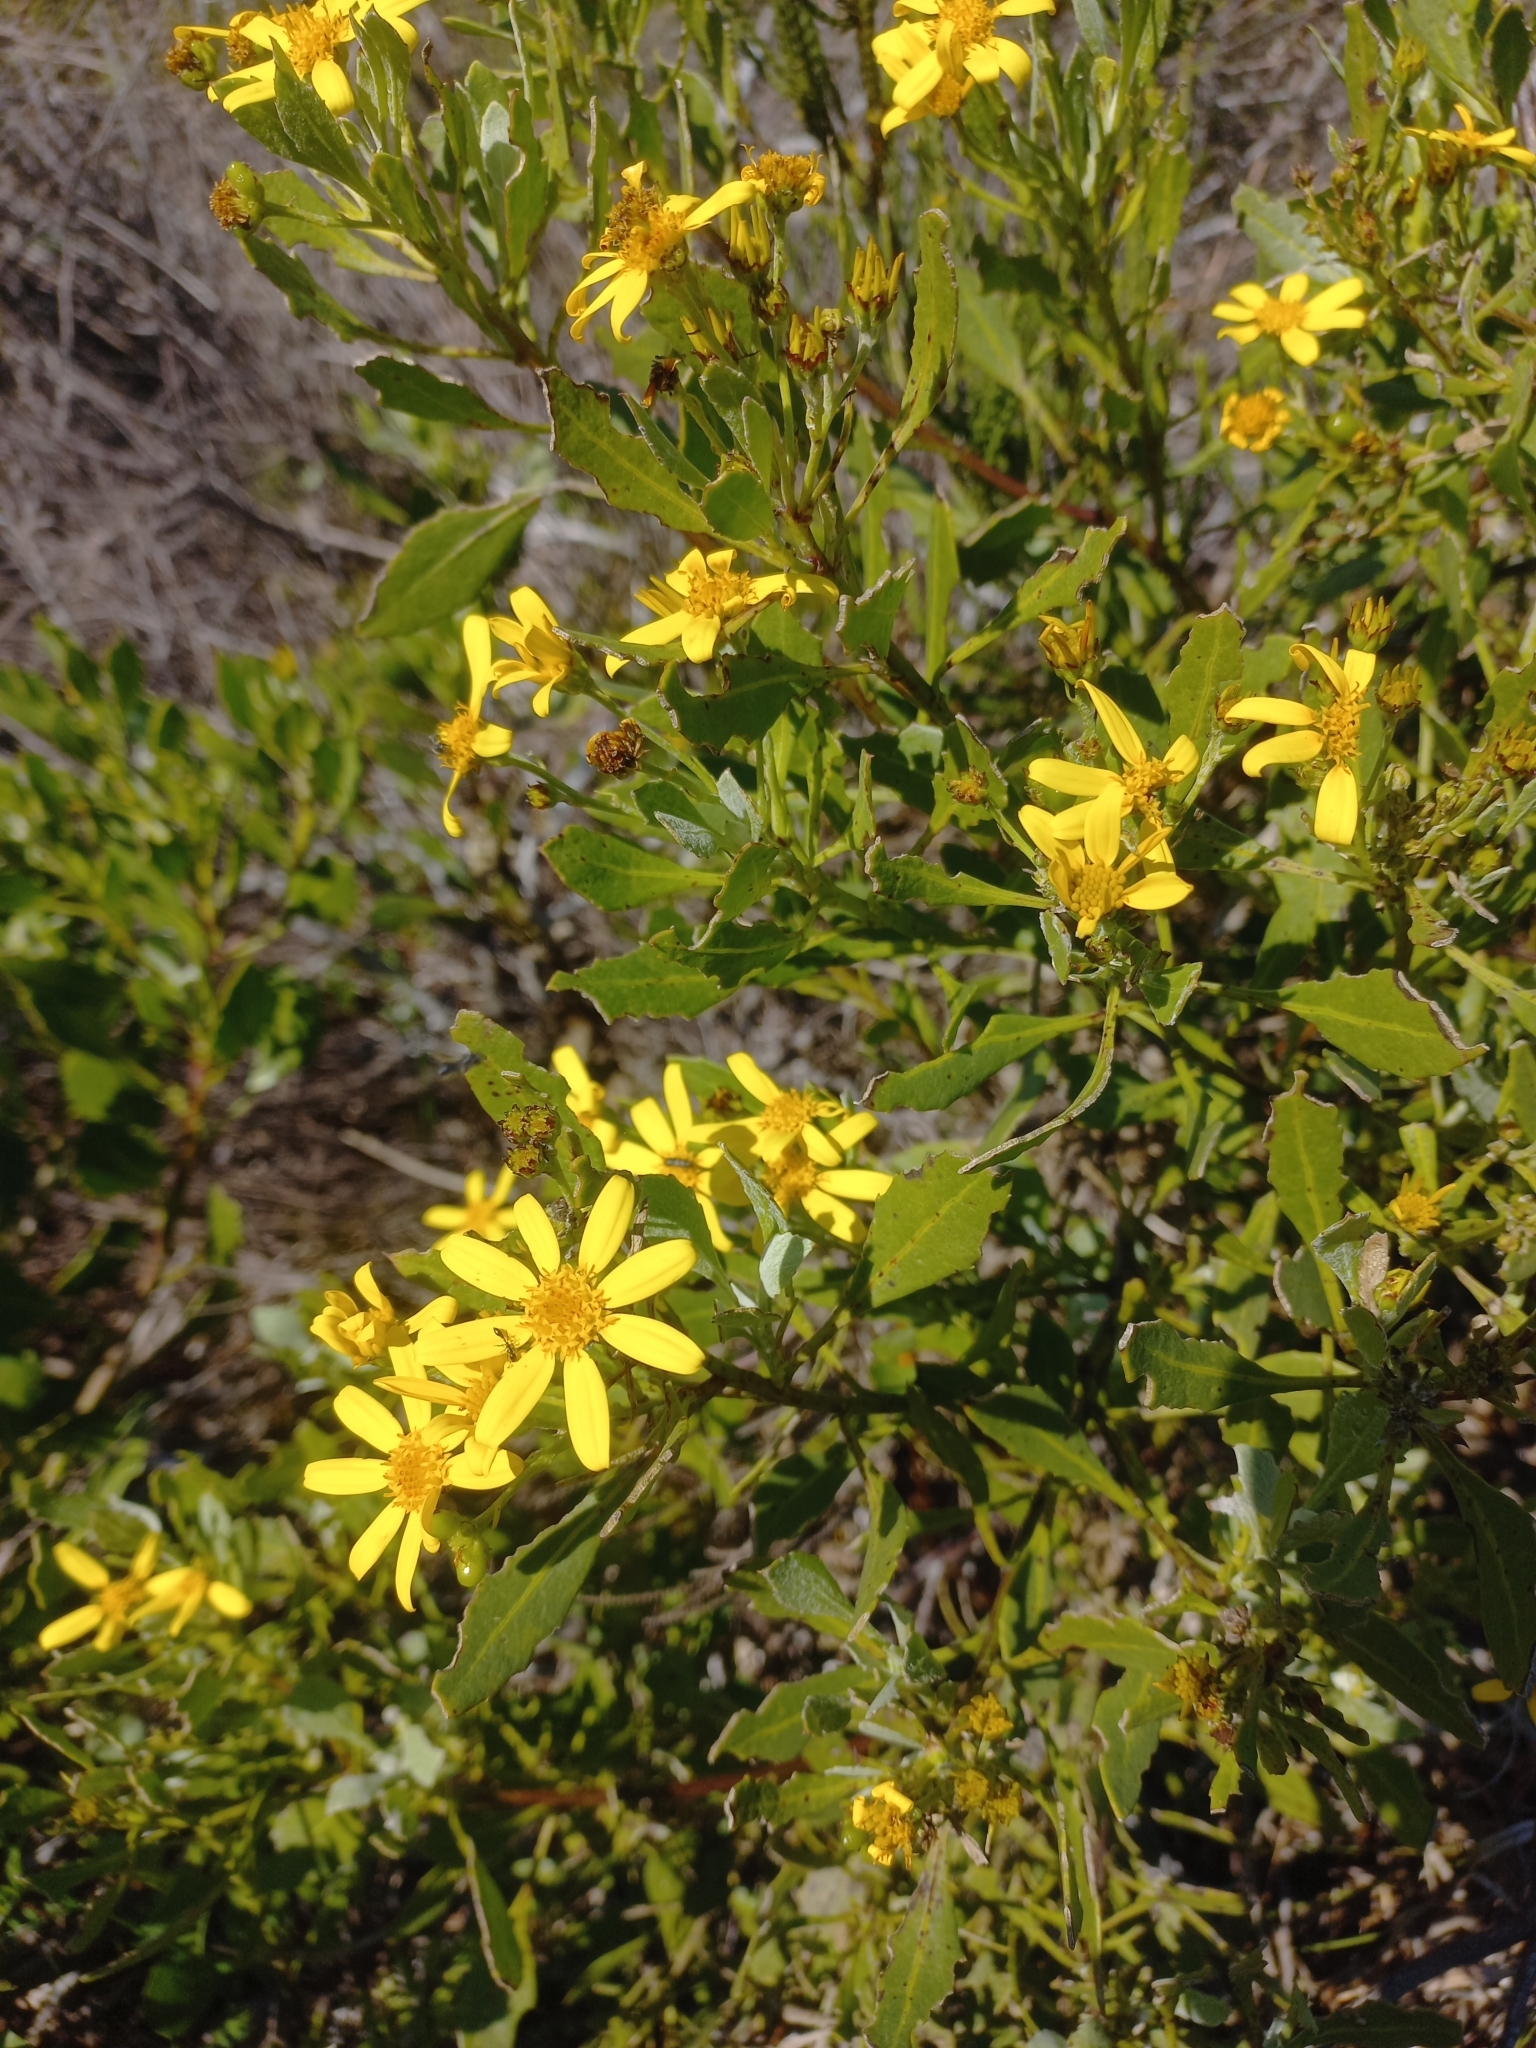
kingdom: Plantae
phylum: Tracheophyta
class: Magnoliopsida
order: Asterales
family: Asteraceae
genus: Osteospermum
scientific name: Osteospermum moniliferum
